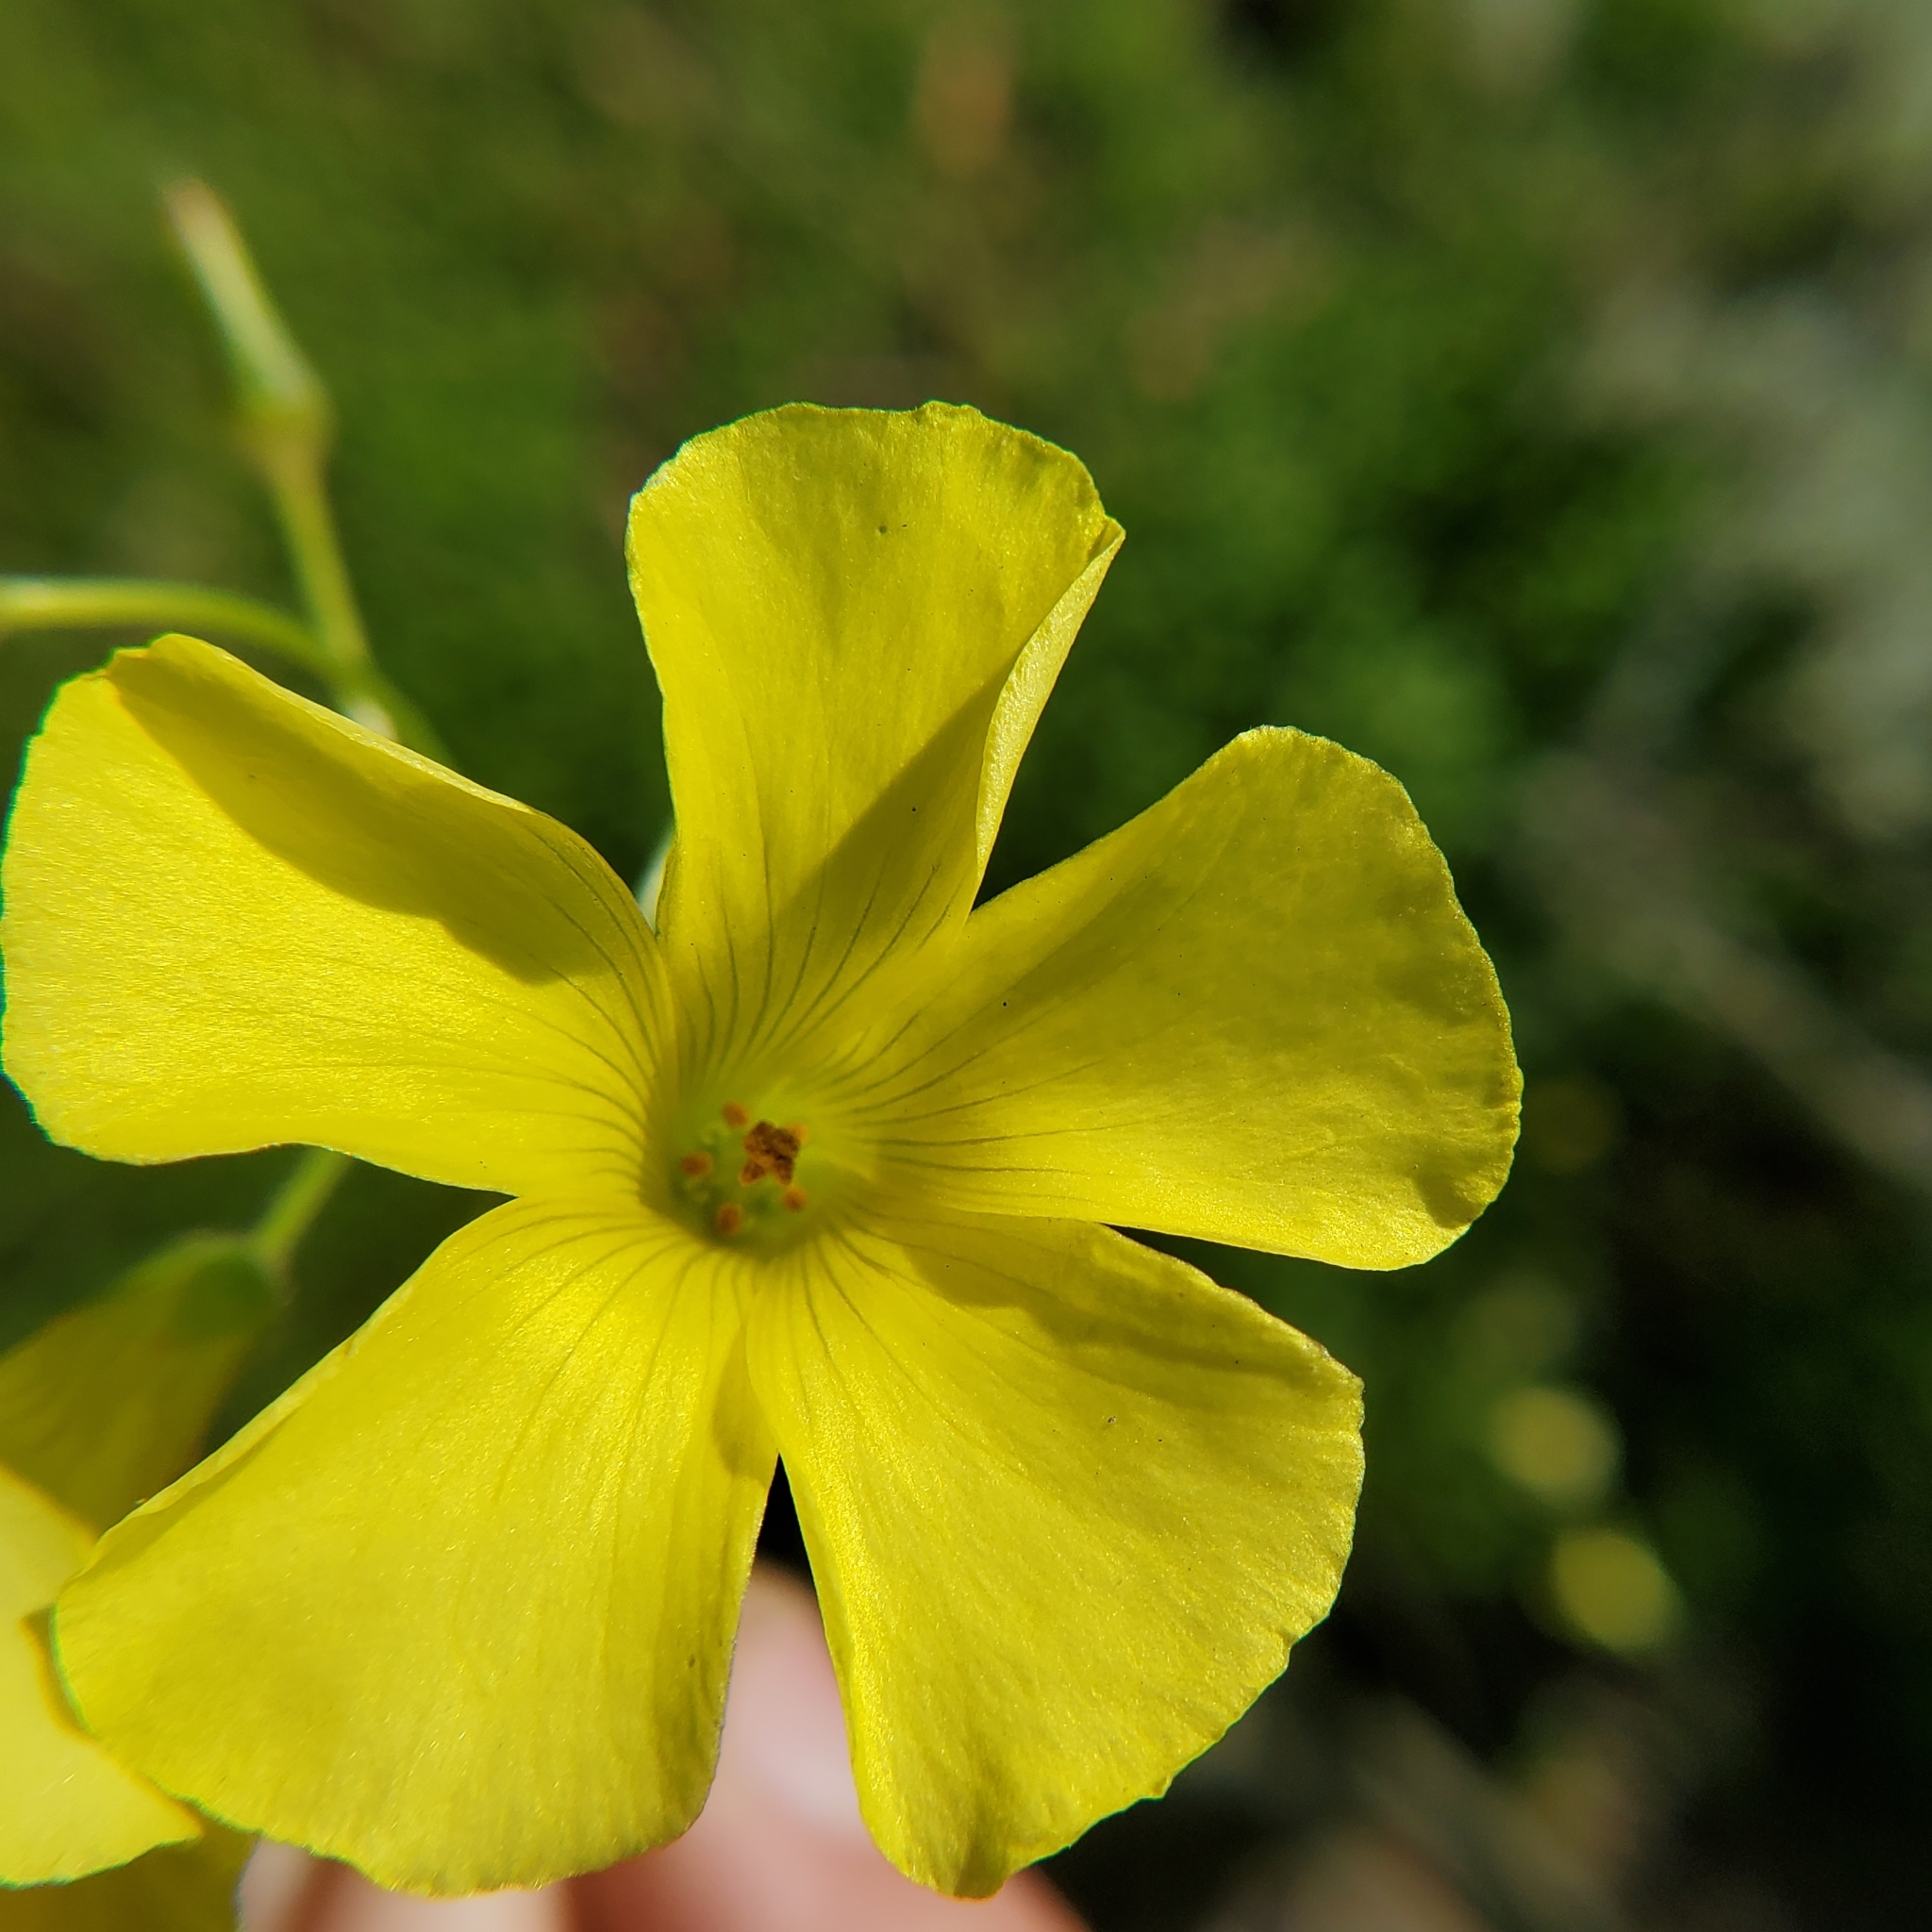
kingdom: Plantae
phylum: Tracheophyta
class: Magnoliopsida
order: Oxalidales
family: Oxalidaceae
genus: Oxalis
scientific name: Oxalis pes-caprae
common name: Bermuda-buttercup
